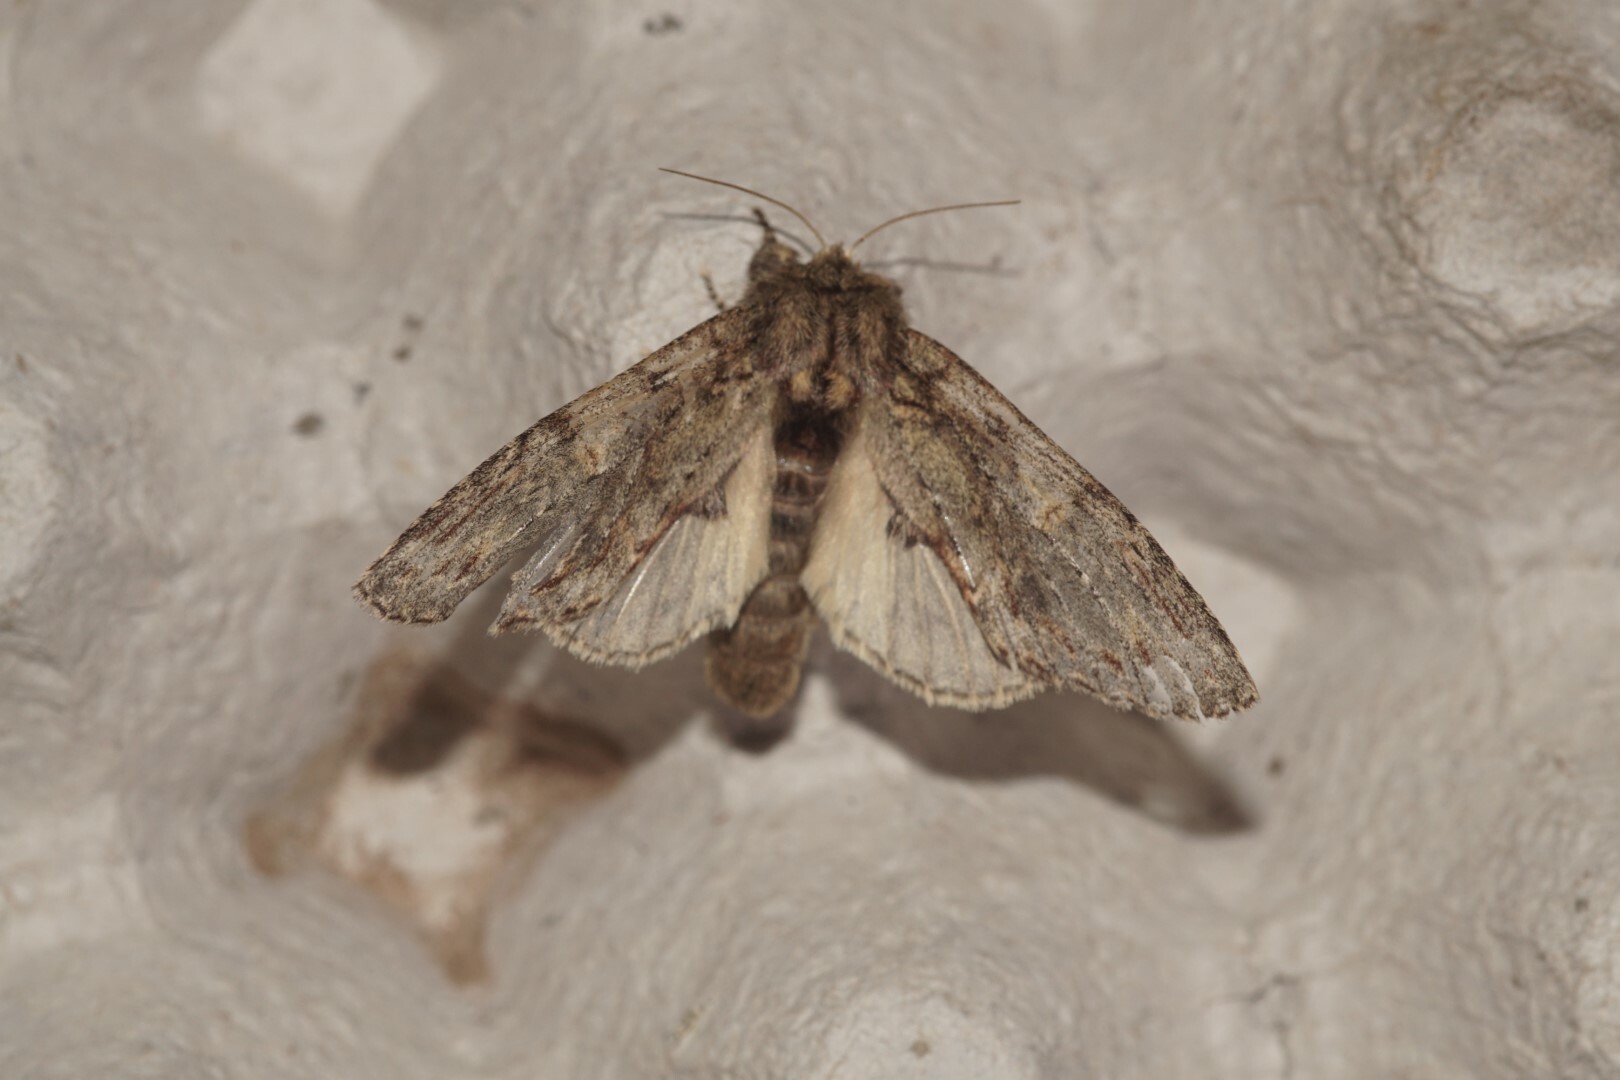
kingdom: Animalia
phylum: Arthropoda
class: Insecta
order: Lepidoptera
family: Notodontidae
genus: Peridea
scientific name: Peridea anceps
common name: Great prominent
